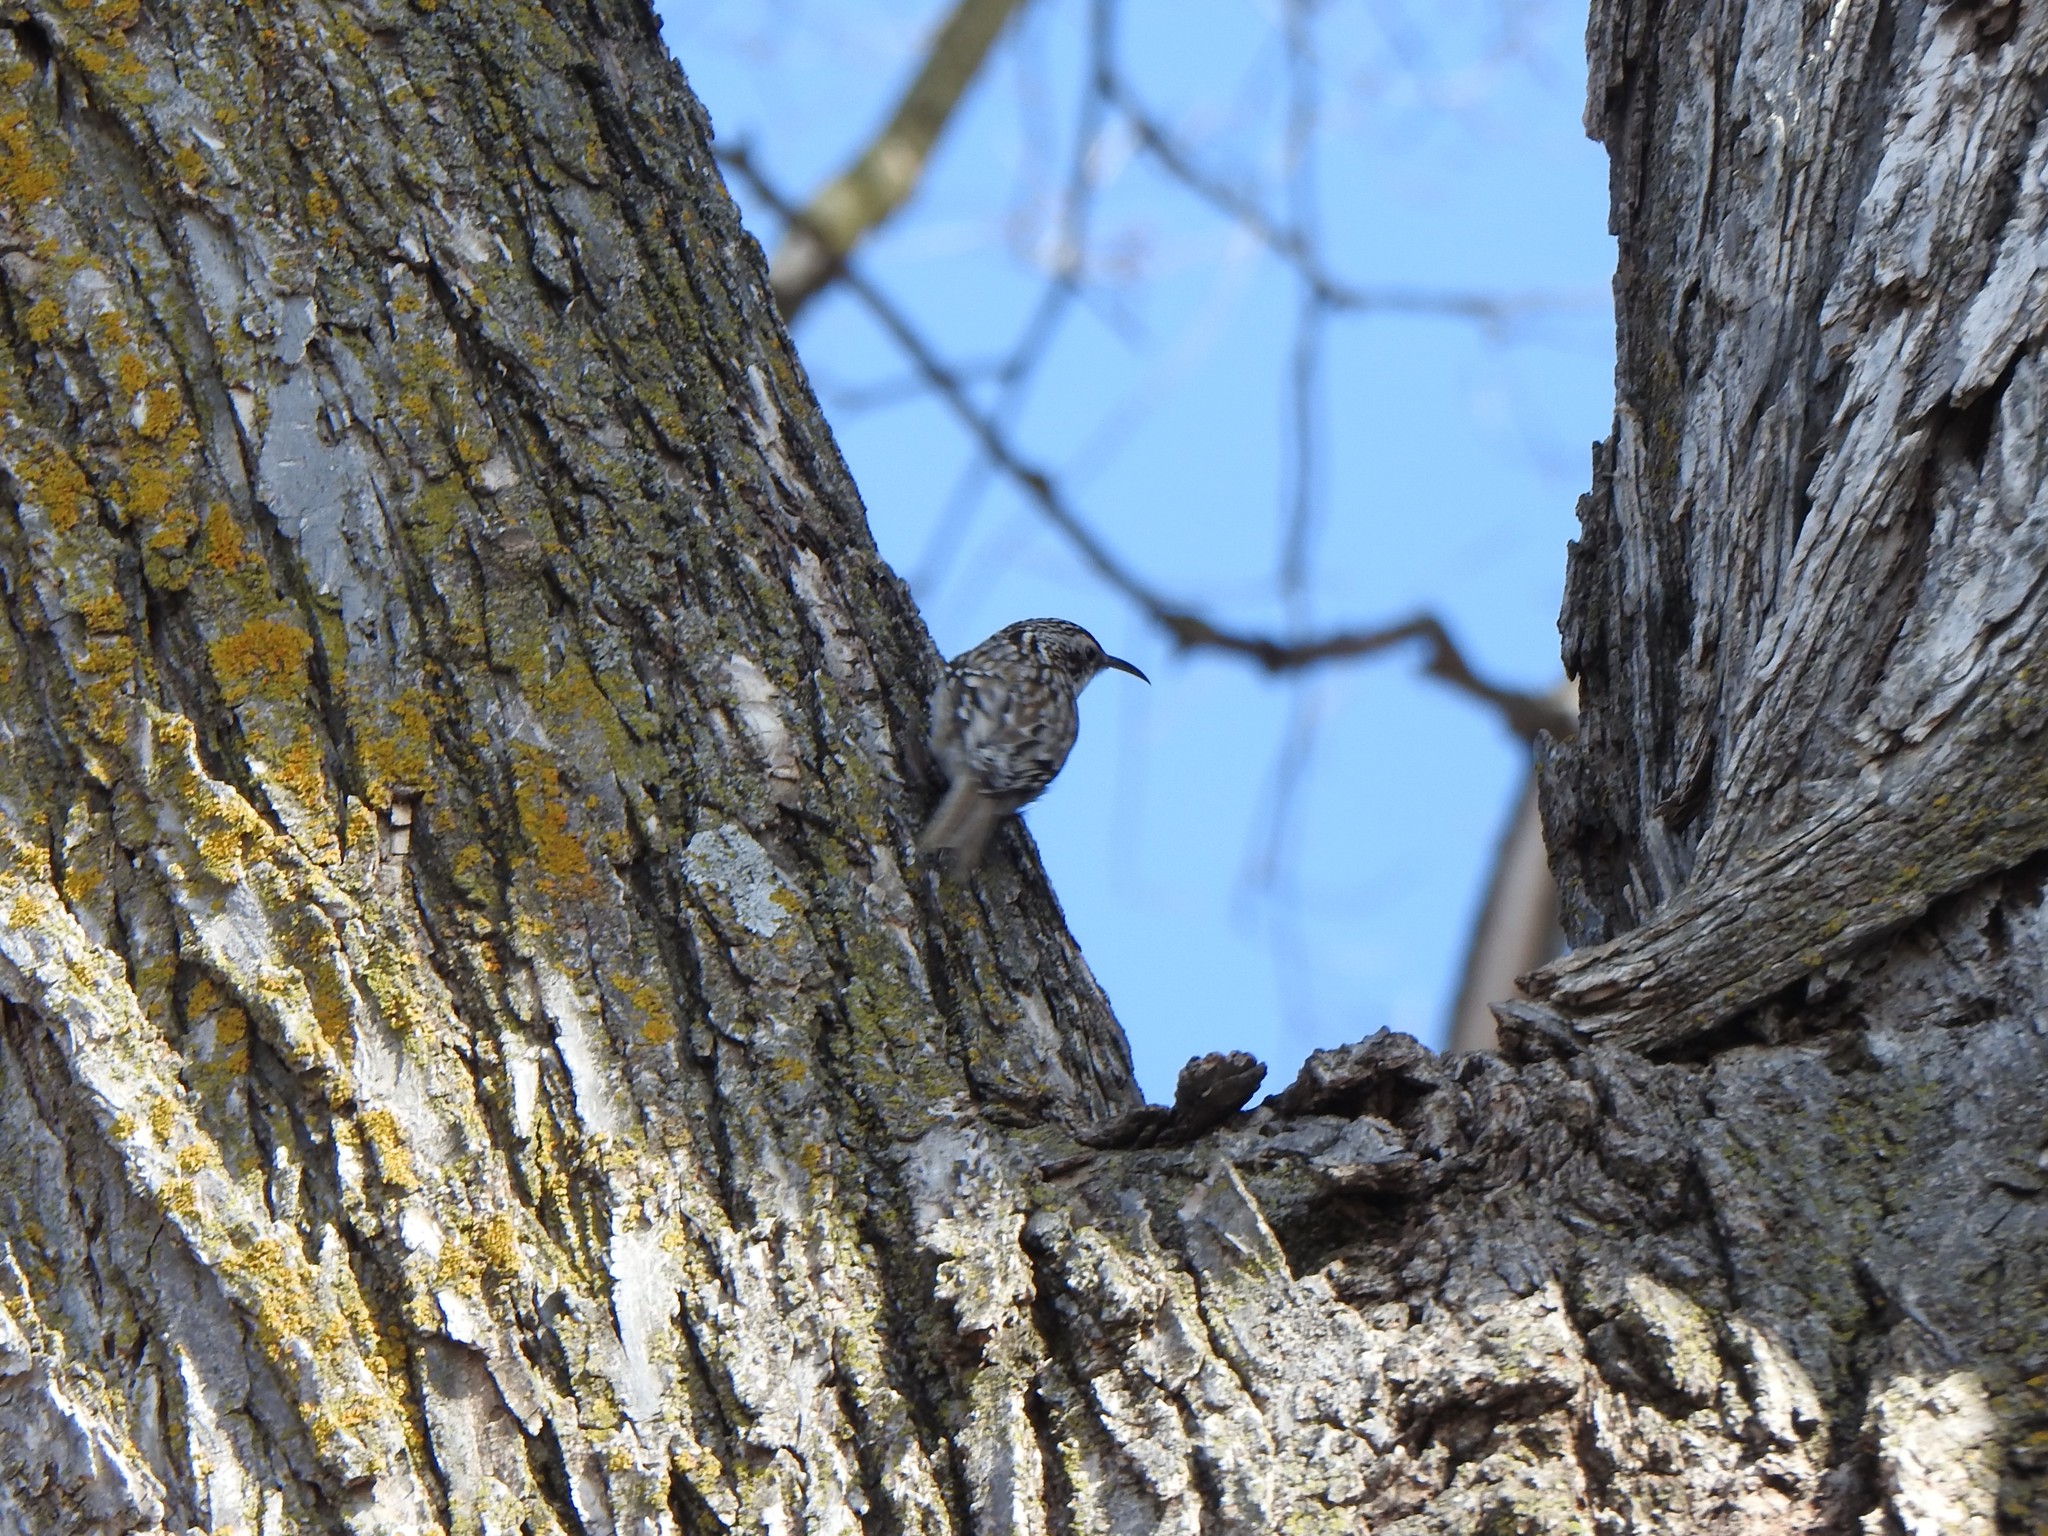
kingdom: Animalia
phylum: Chordata
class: Aves
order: Passeriformes
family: Certhiidae
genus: Certhia
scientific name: Certhia americana
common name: Brown creeper
